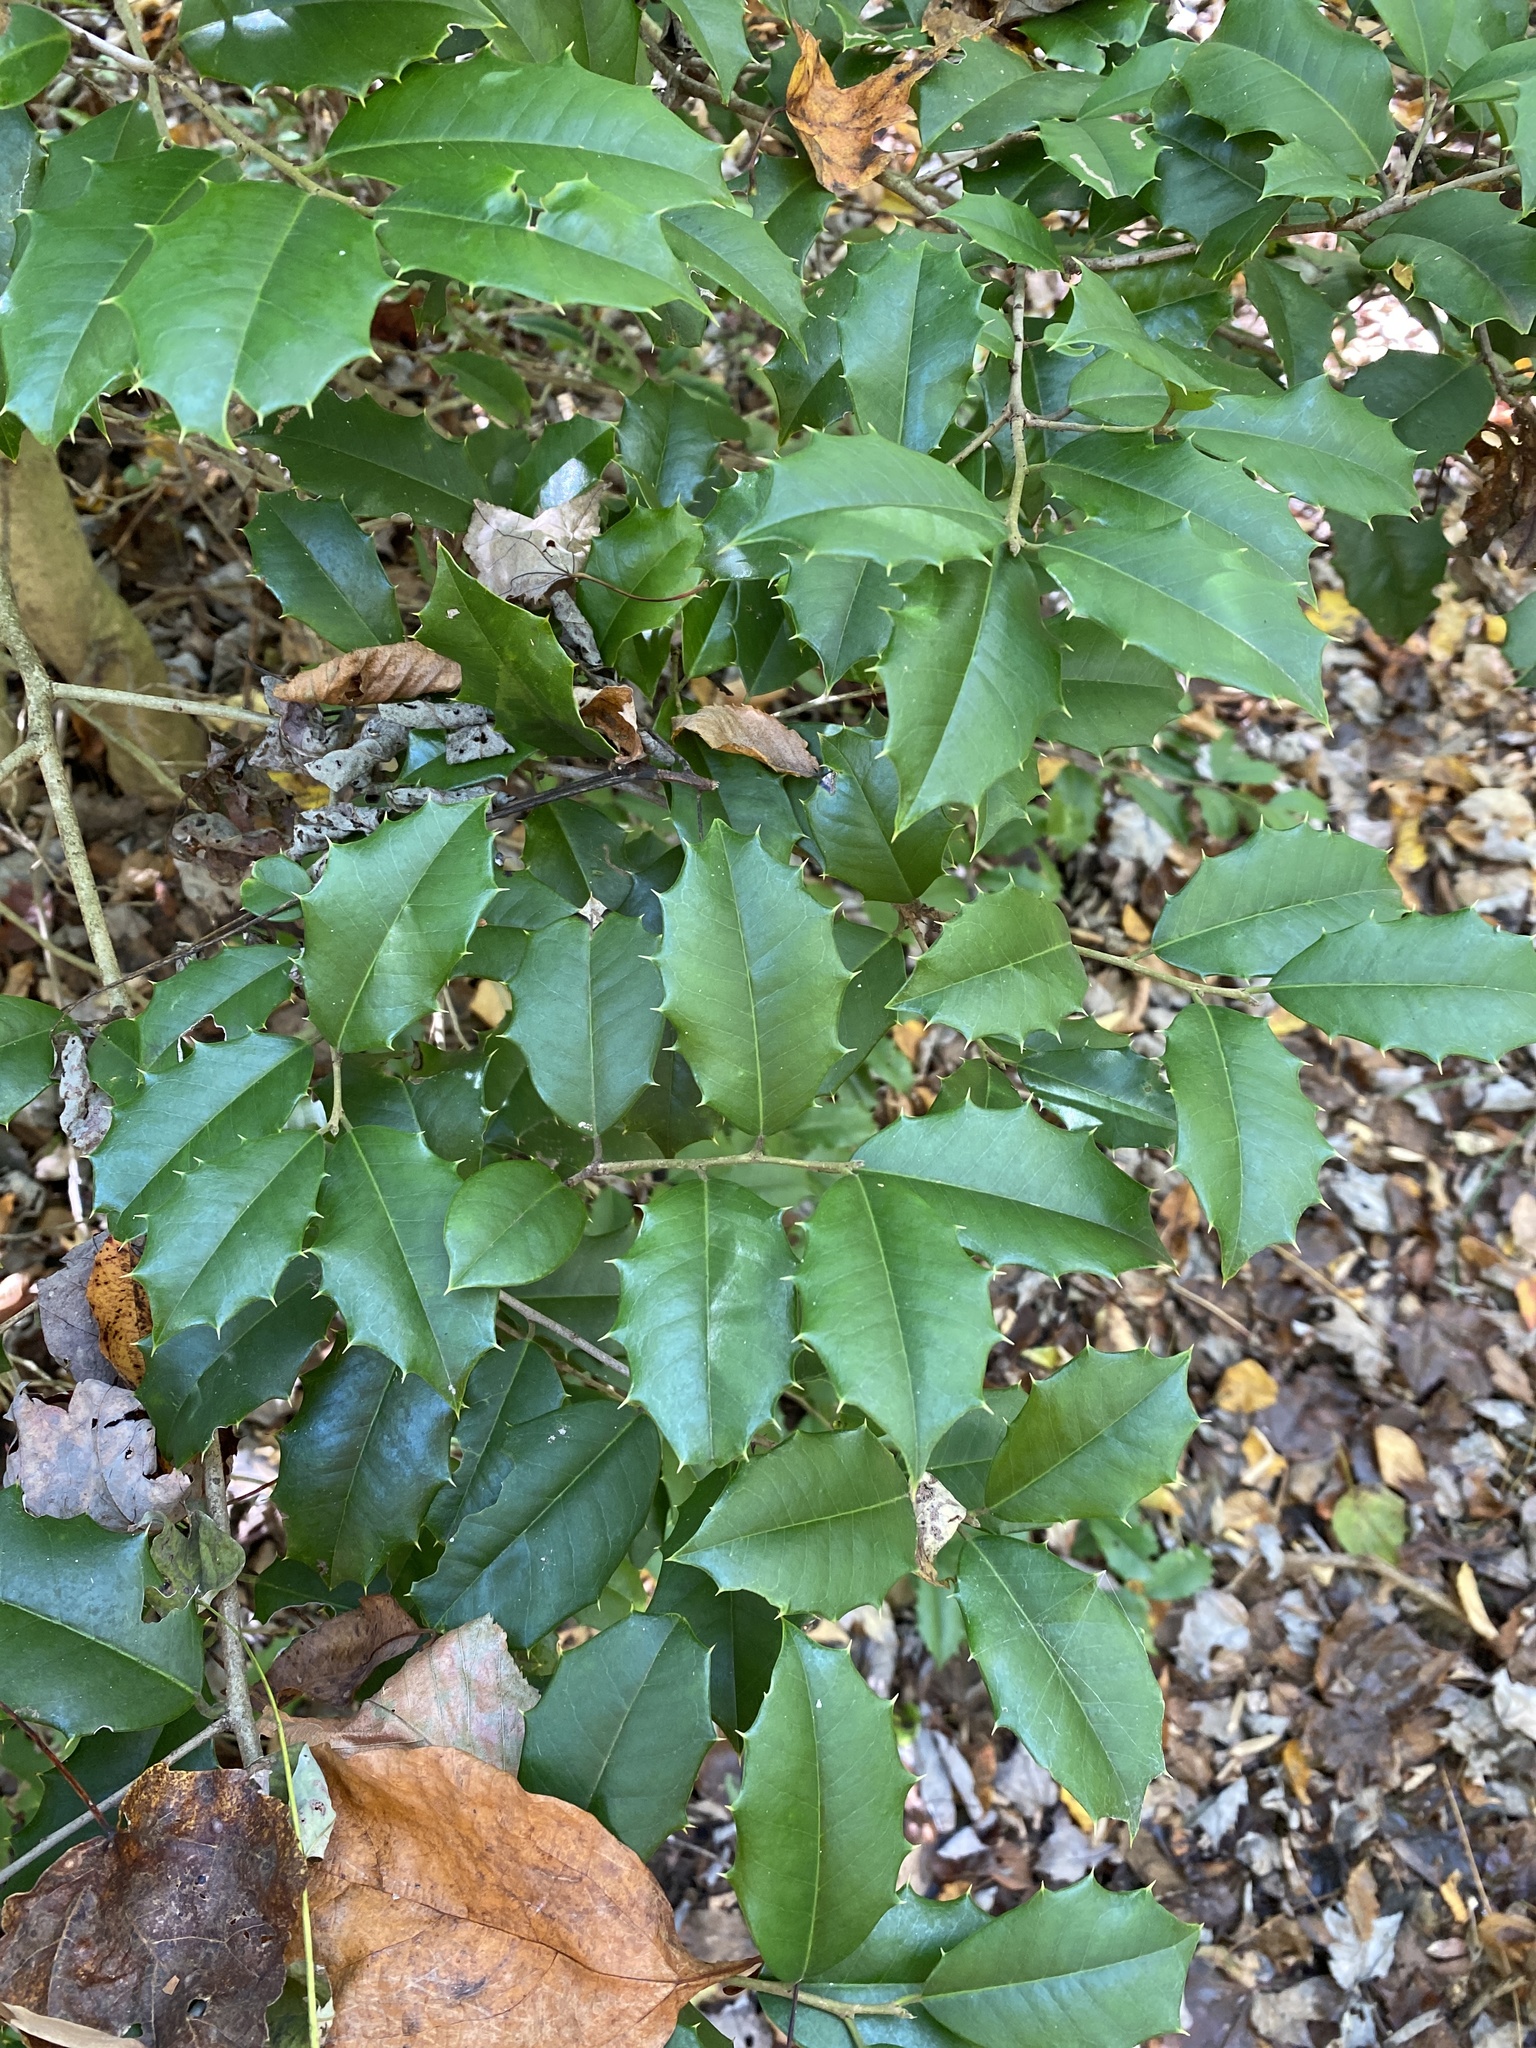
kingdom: Plantae
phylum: Tracheophyta
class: Magnoliopsida
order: Aquifoliales
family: Aquifoliaceae
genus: Ilex
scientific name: Ilex opaca
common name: American holly
